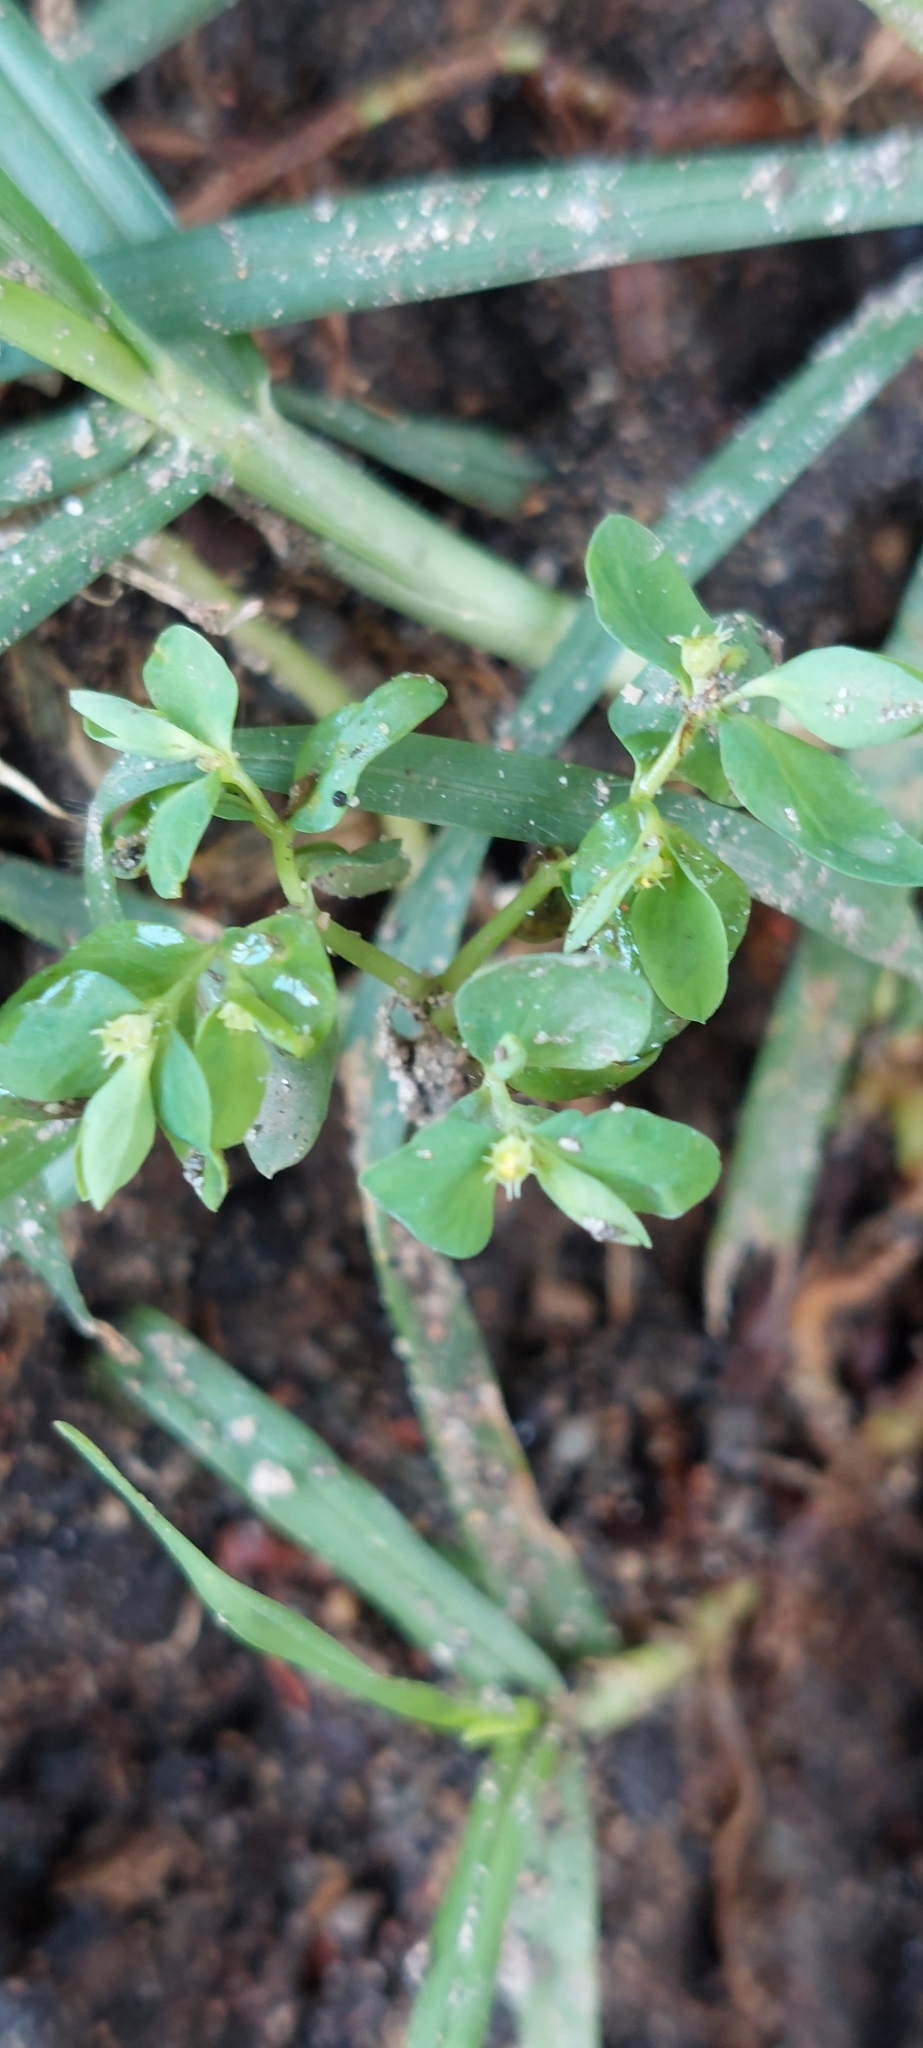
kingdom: Plantae
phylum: Tracheophyta
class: Magnoliopsida
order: Malpighiales
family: Euphorbiaceae
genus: Euphorbia
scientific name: Euphorbia peplus
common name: Petty spurge
